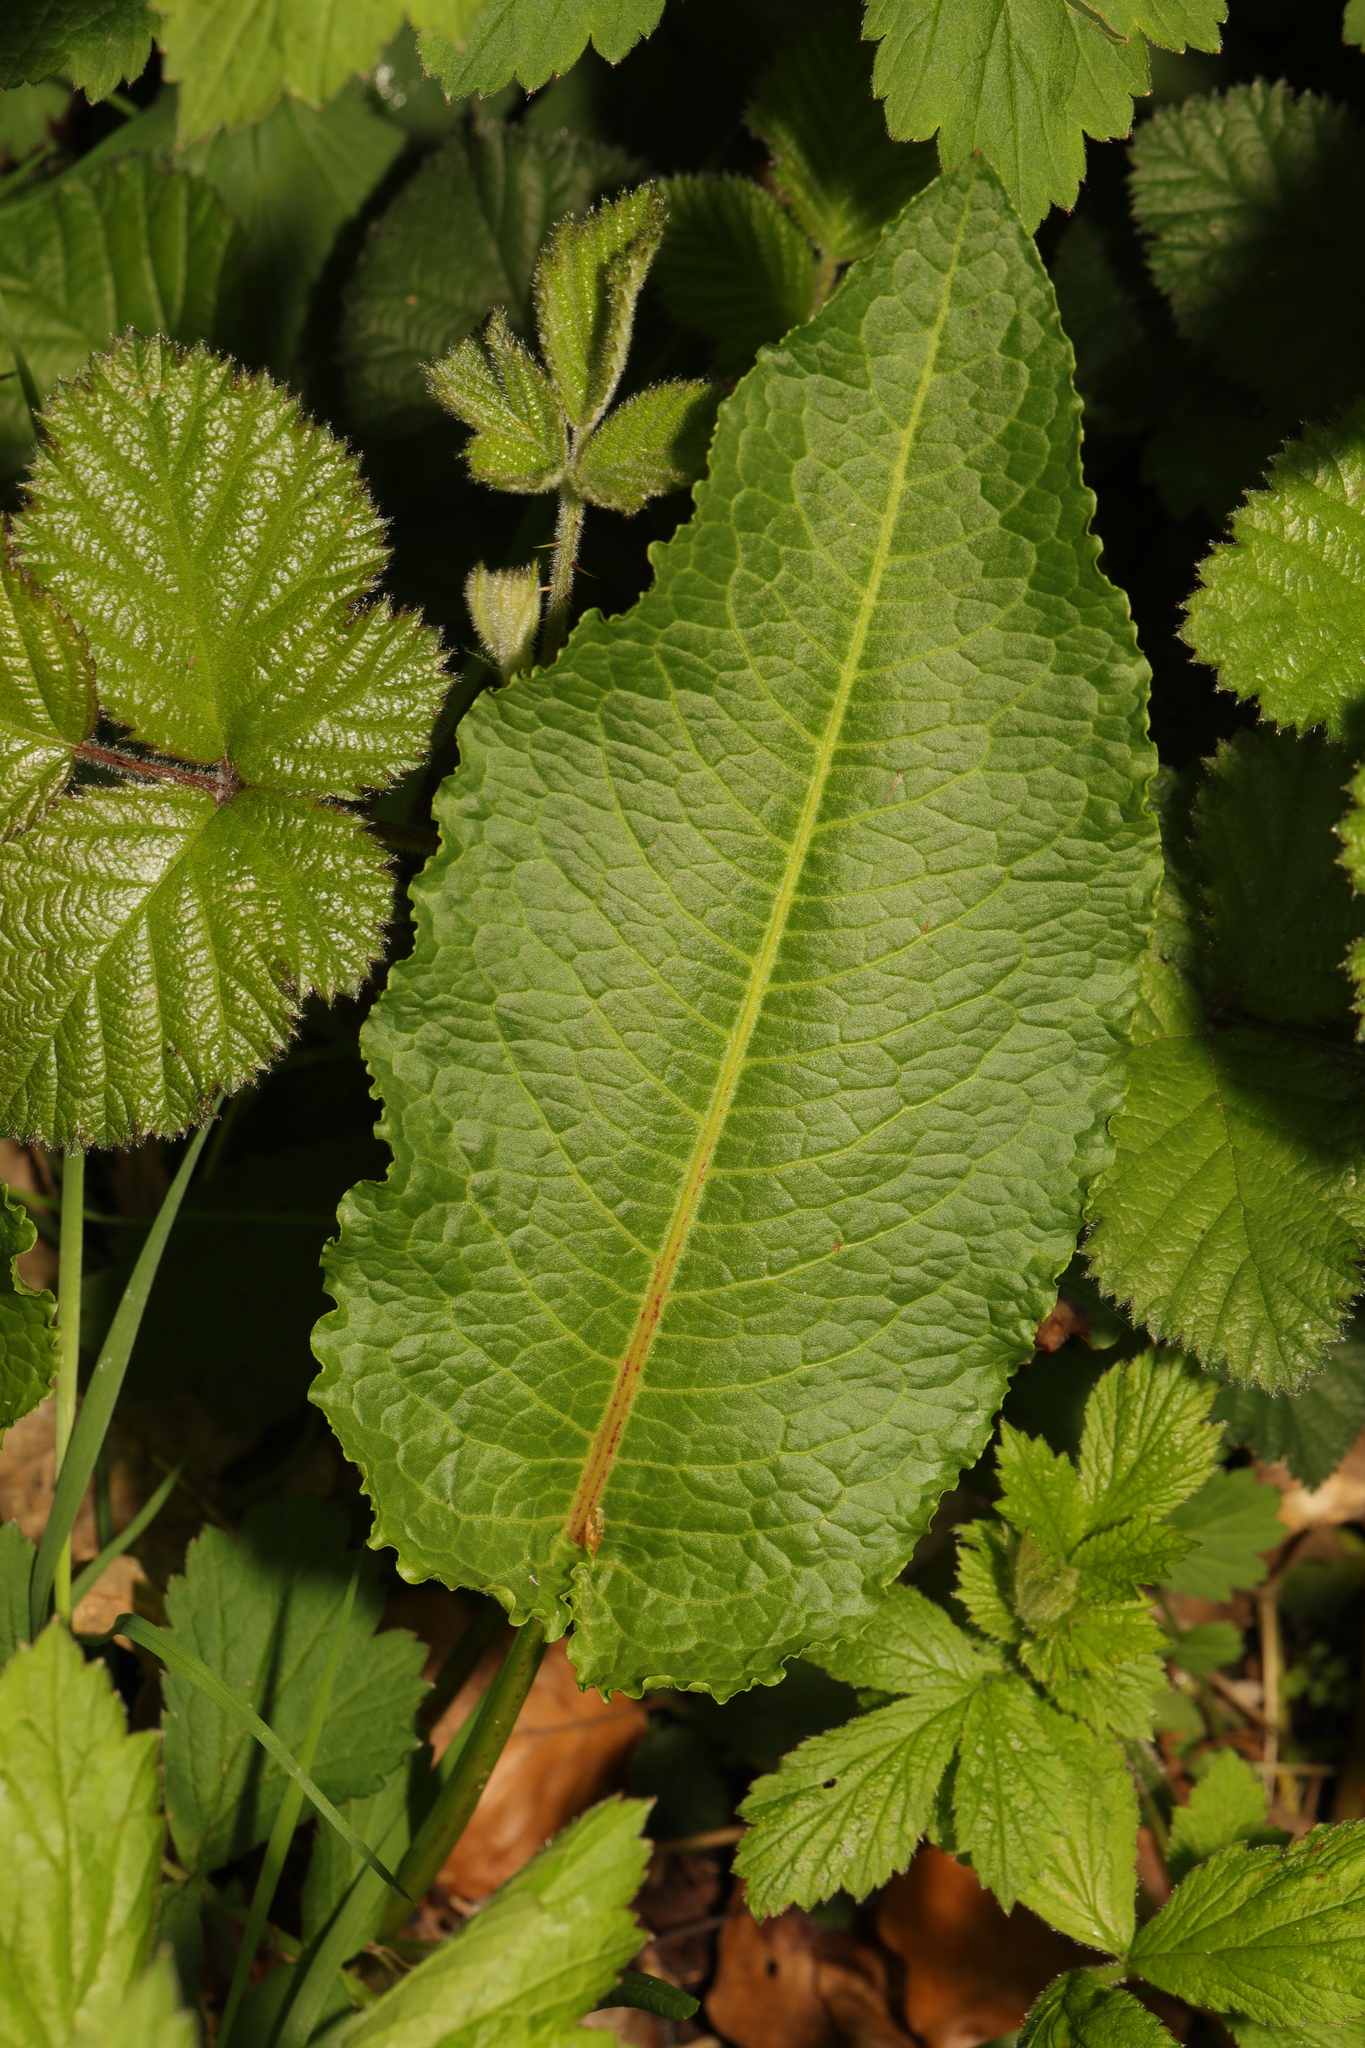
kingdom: Plantae
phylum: Tracheophyta
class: Magnoliopsida
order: Caryophyllales
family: Polygonaceae
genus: Rumex
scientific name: Rumex obtusifolius
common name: Bitter dock
